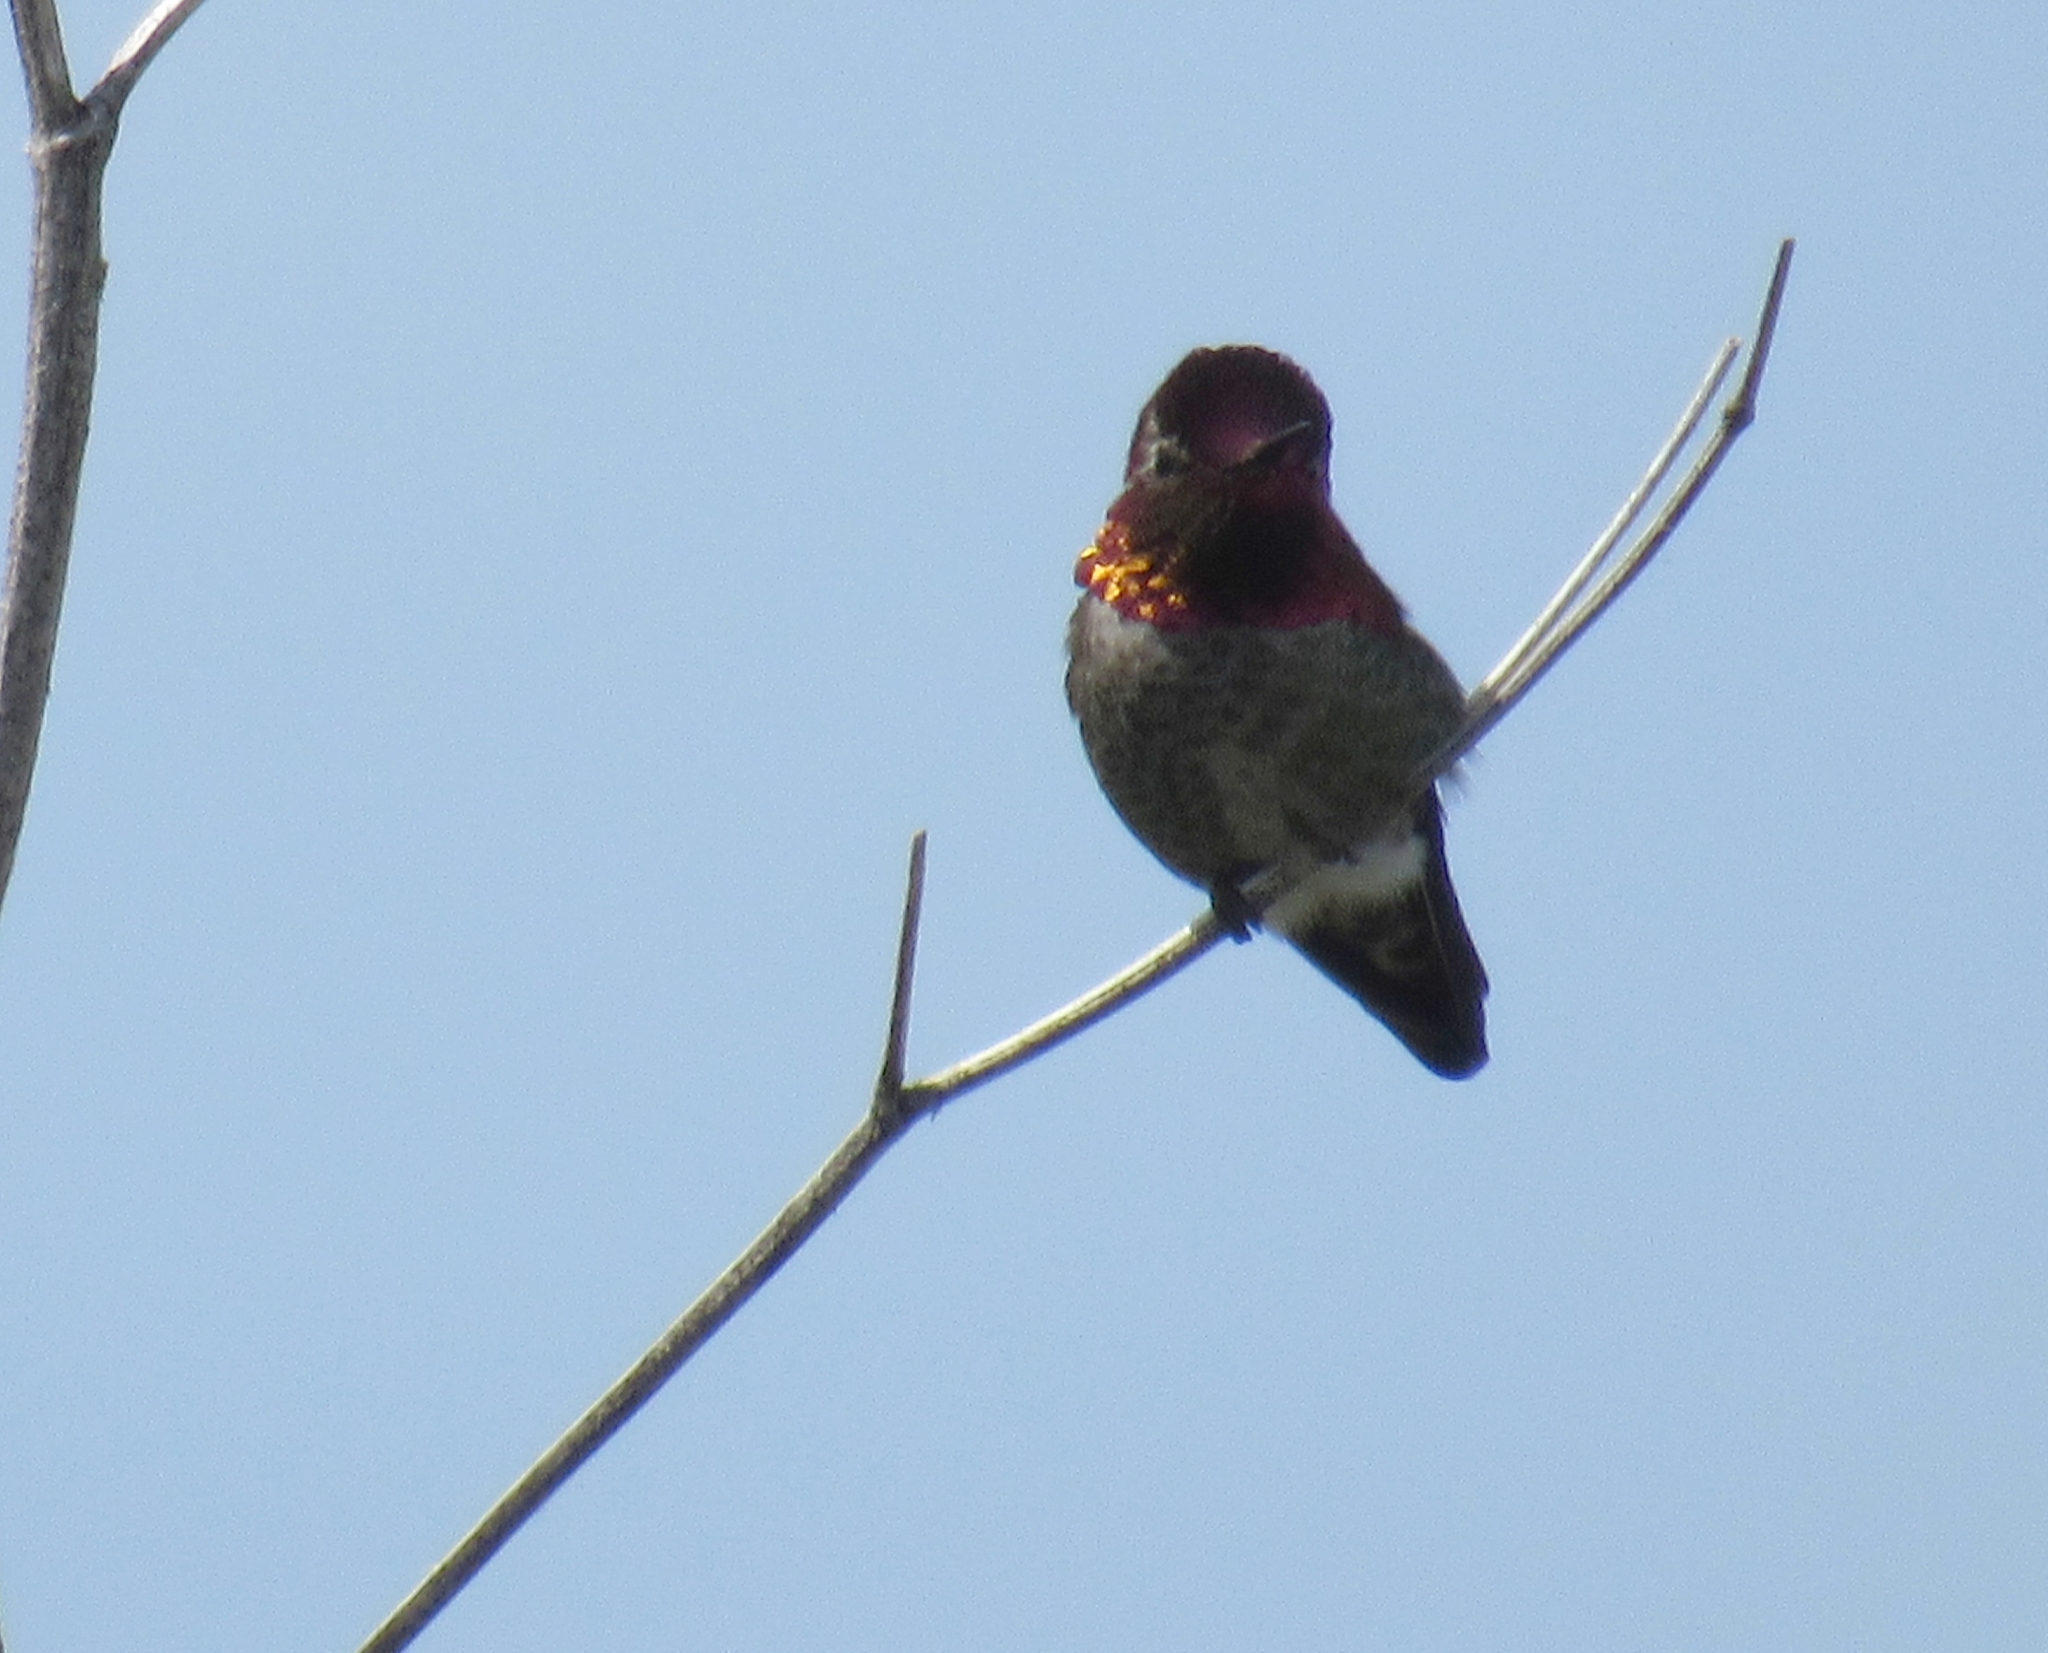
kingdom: Animalia
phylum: Chordata
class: Aves
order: Apodiformes
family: Trochilidae
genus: Calypte
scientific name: Calypte anna
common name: Anna's hummingbird
